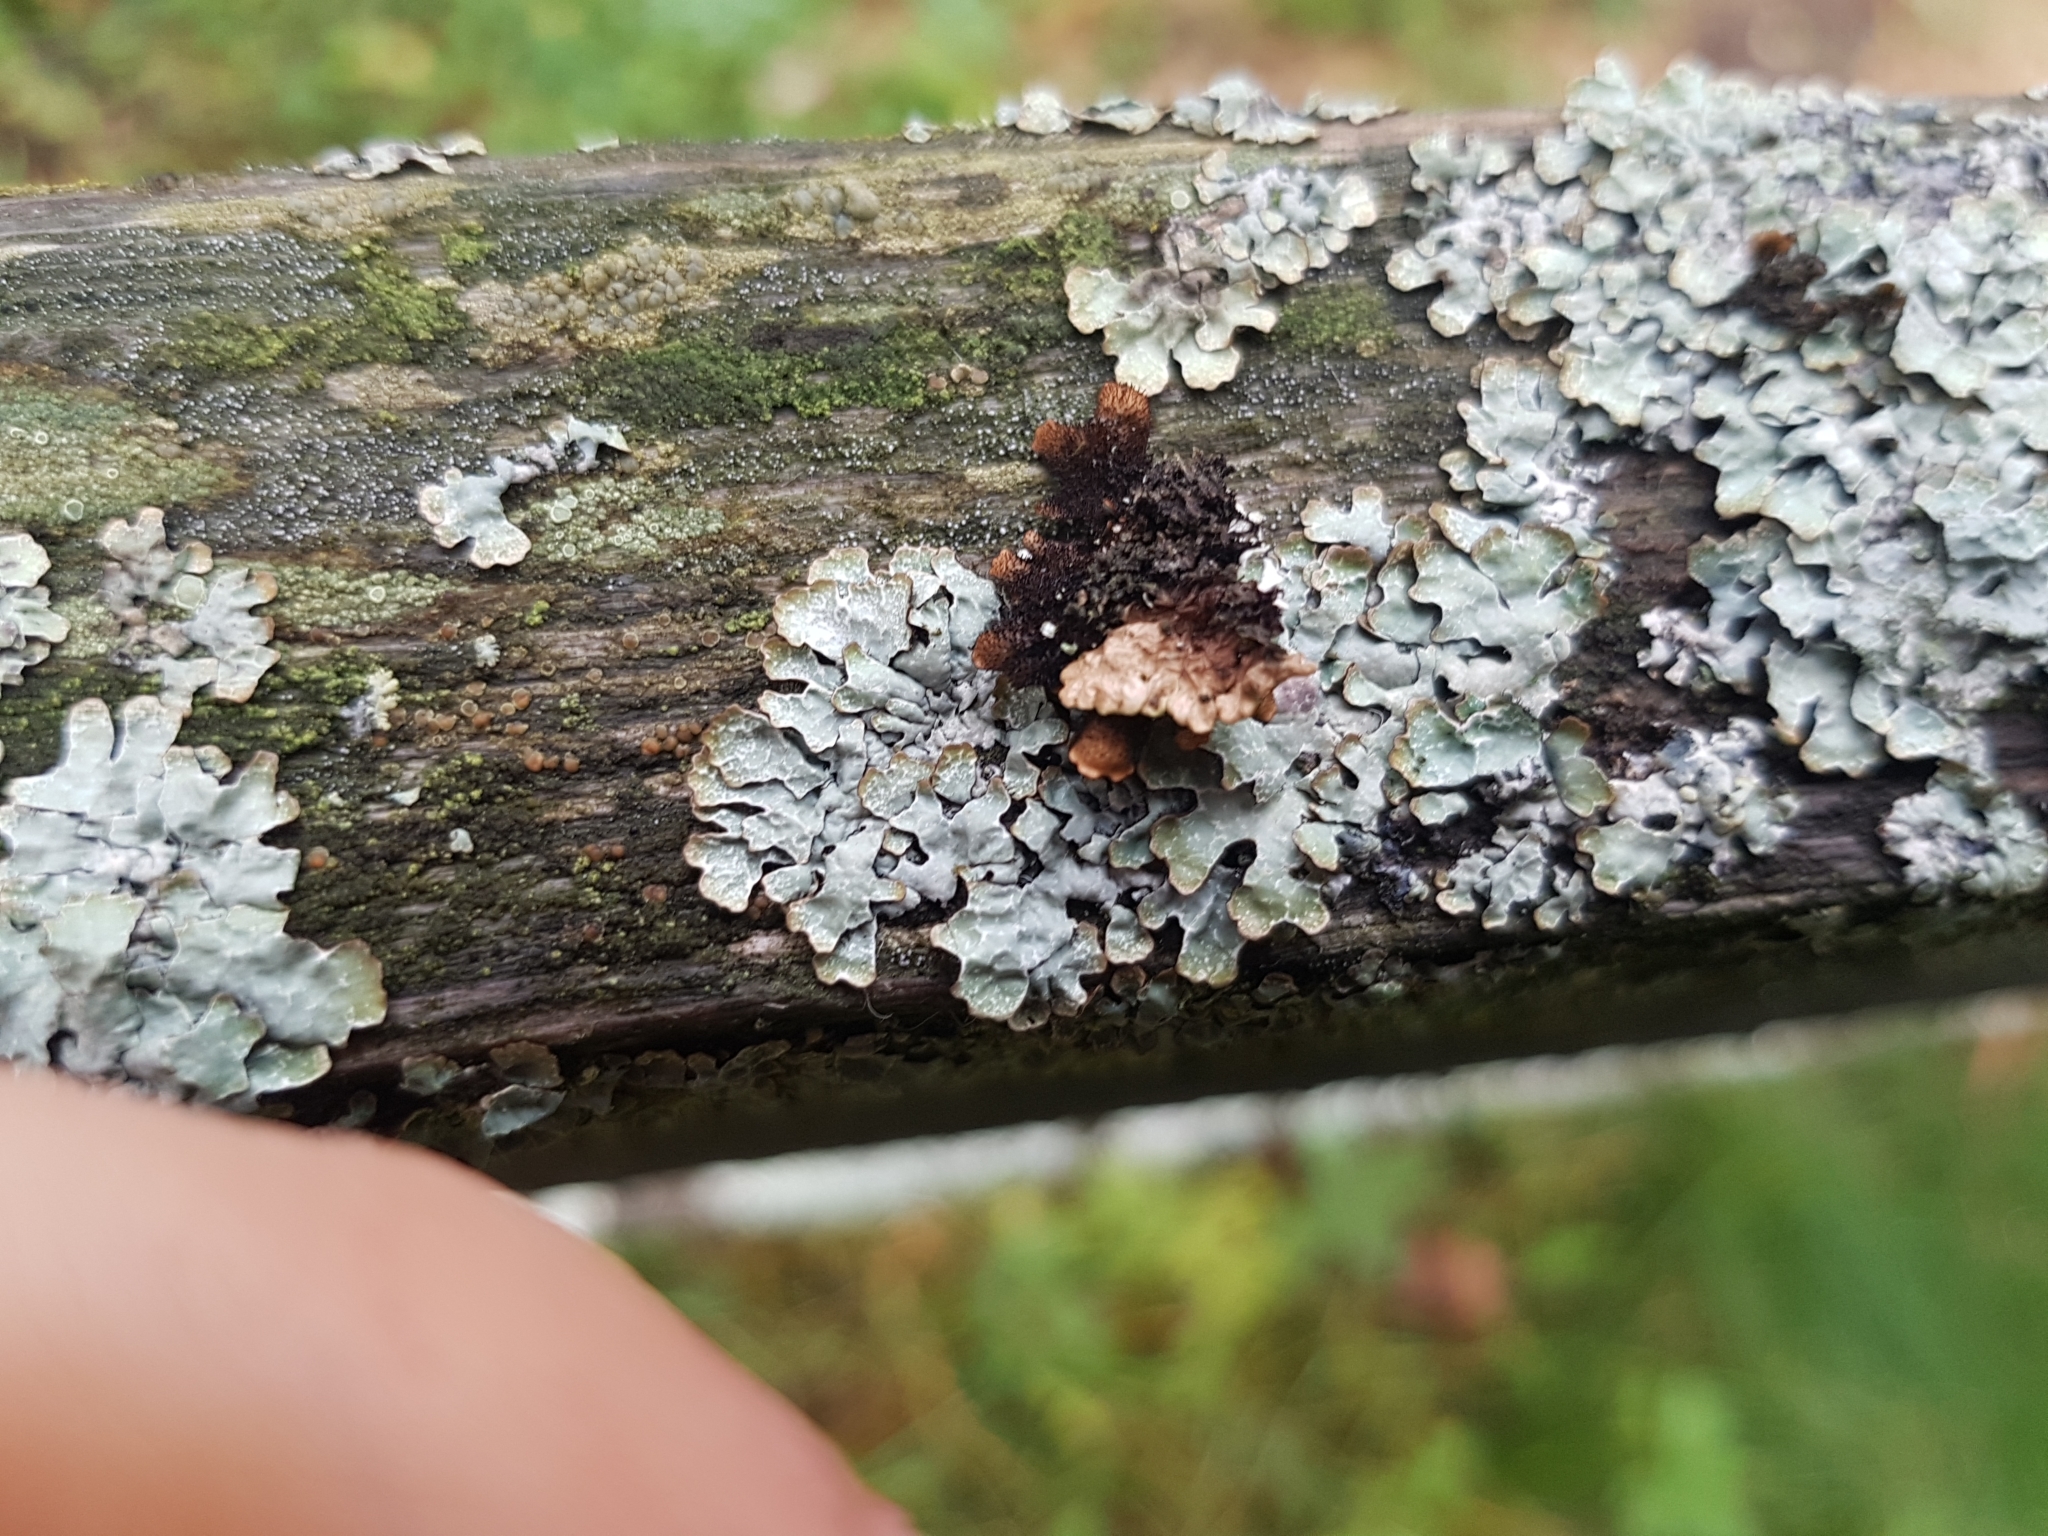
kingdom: Fungi
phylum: Ascomycota
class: Lecanoromycetes
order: Lecanorales
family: Parmeliaceae
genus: Parmelia
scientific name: Parmelia sulcata
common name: Netted shield lichen
